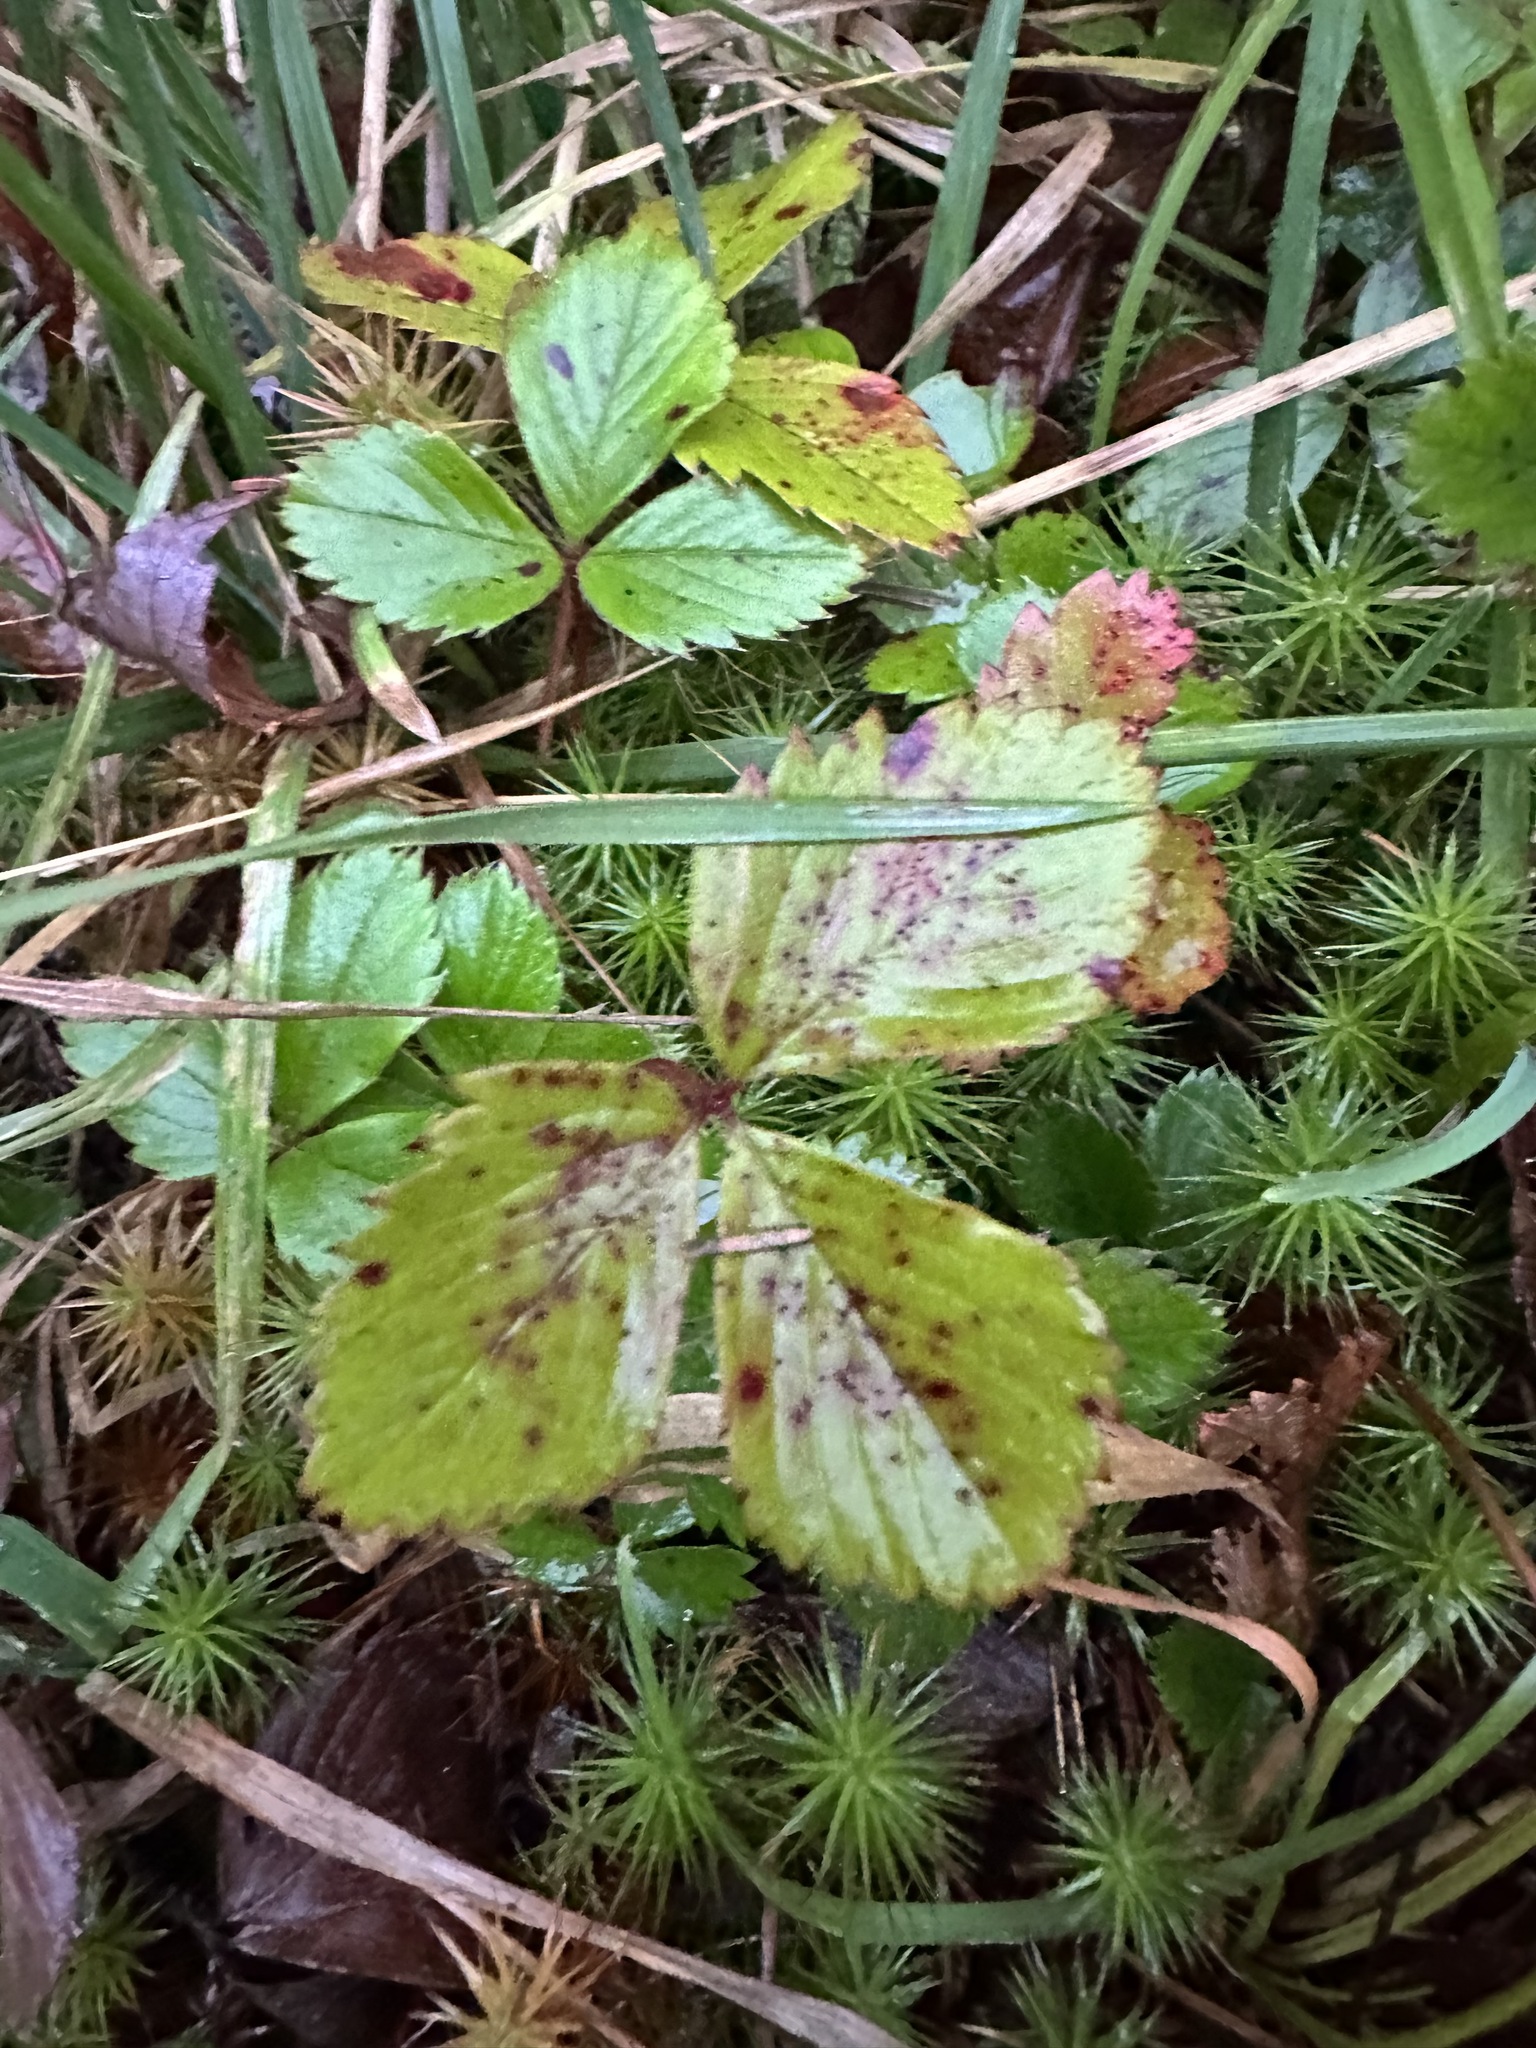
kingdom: Plantae
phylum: Tracheophyta
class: Magnoliopsida
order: Rosales
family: Rosaceae
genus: Fragaria
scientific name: Fragaria virginiana
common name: Thickleaved wild strawberry
